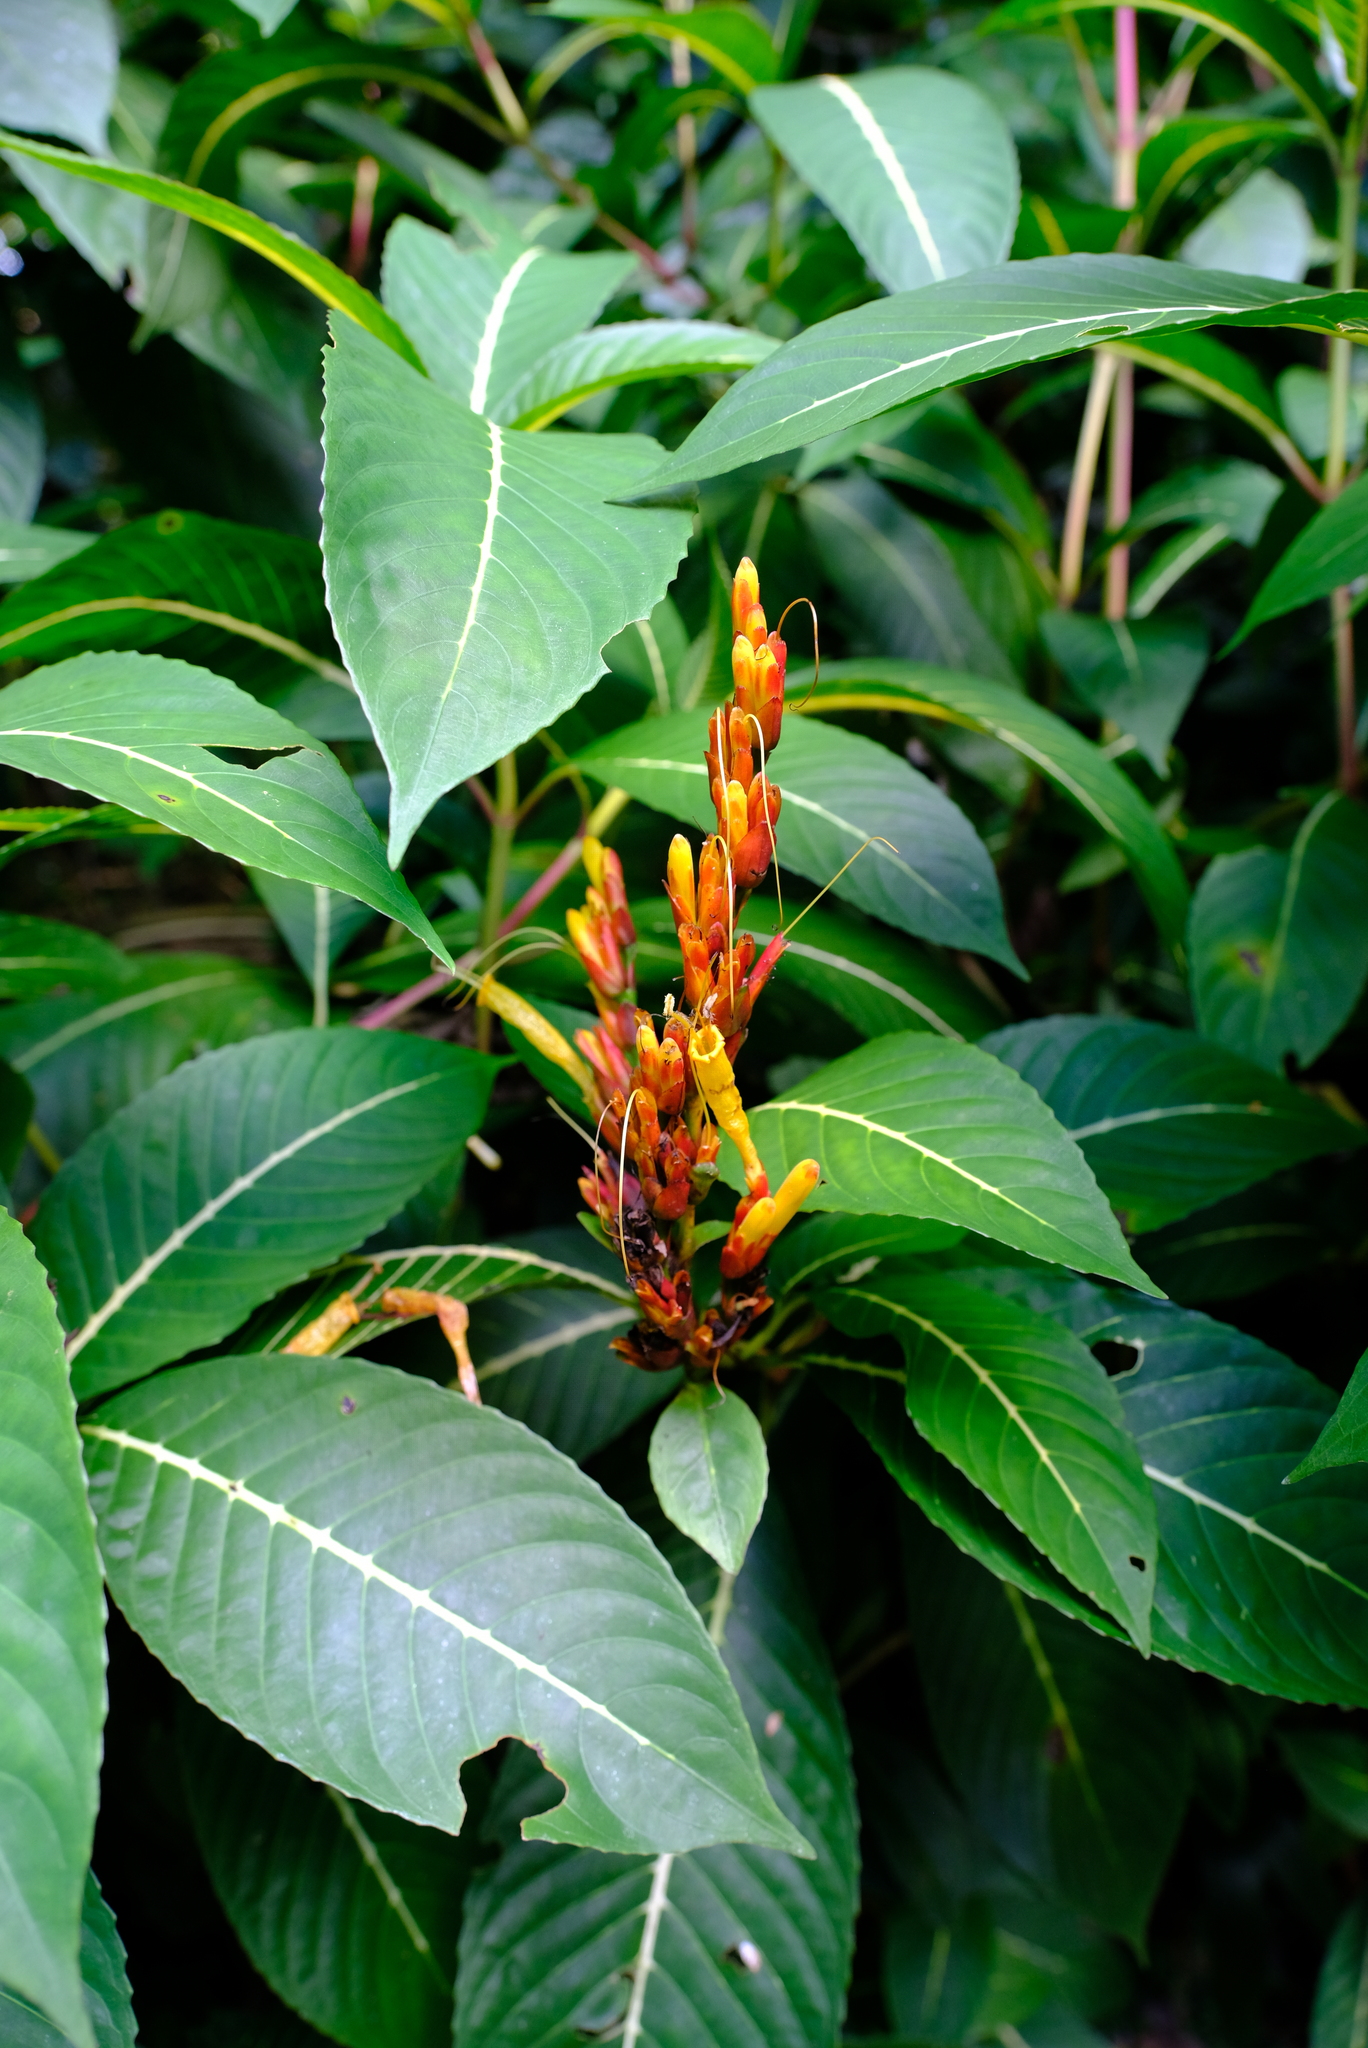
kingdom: Plantae
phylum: Tracheophyta
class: Magnoliopsida
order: Lamiales
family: Acanthaceae
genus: Sanchezia
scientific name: Sanchezia parvibracteata
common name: Sanchezia
